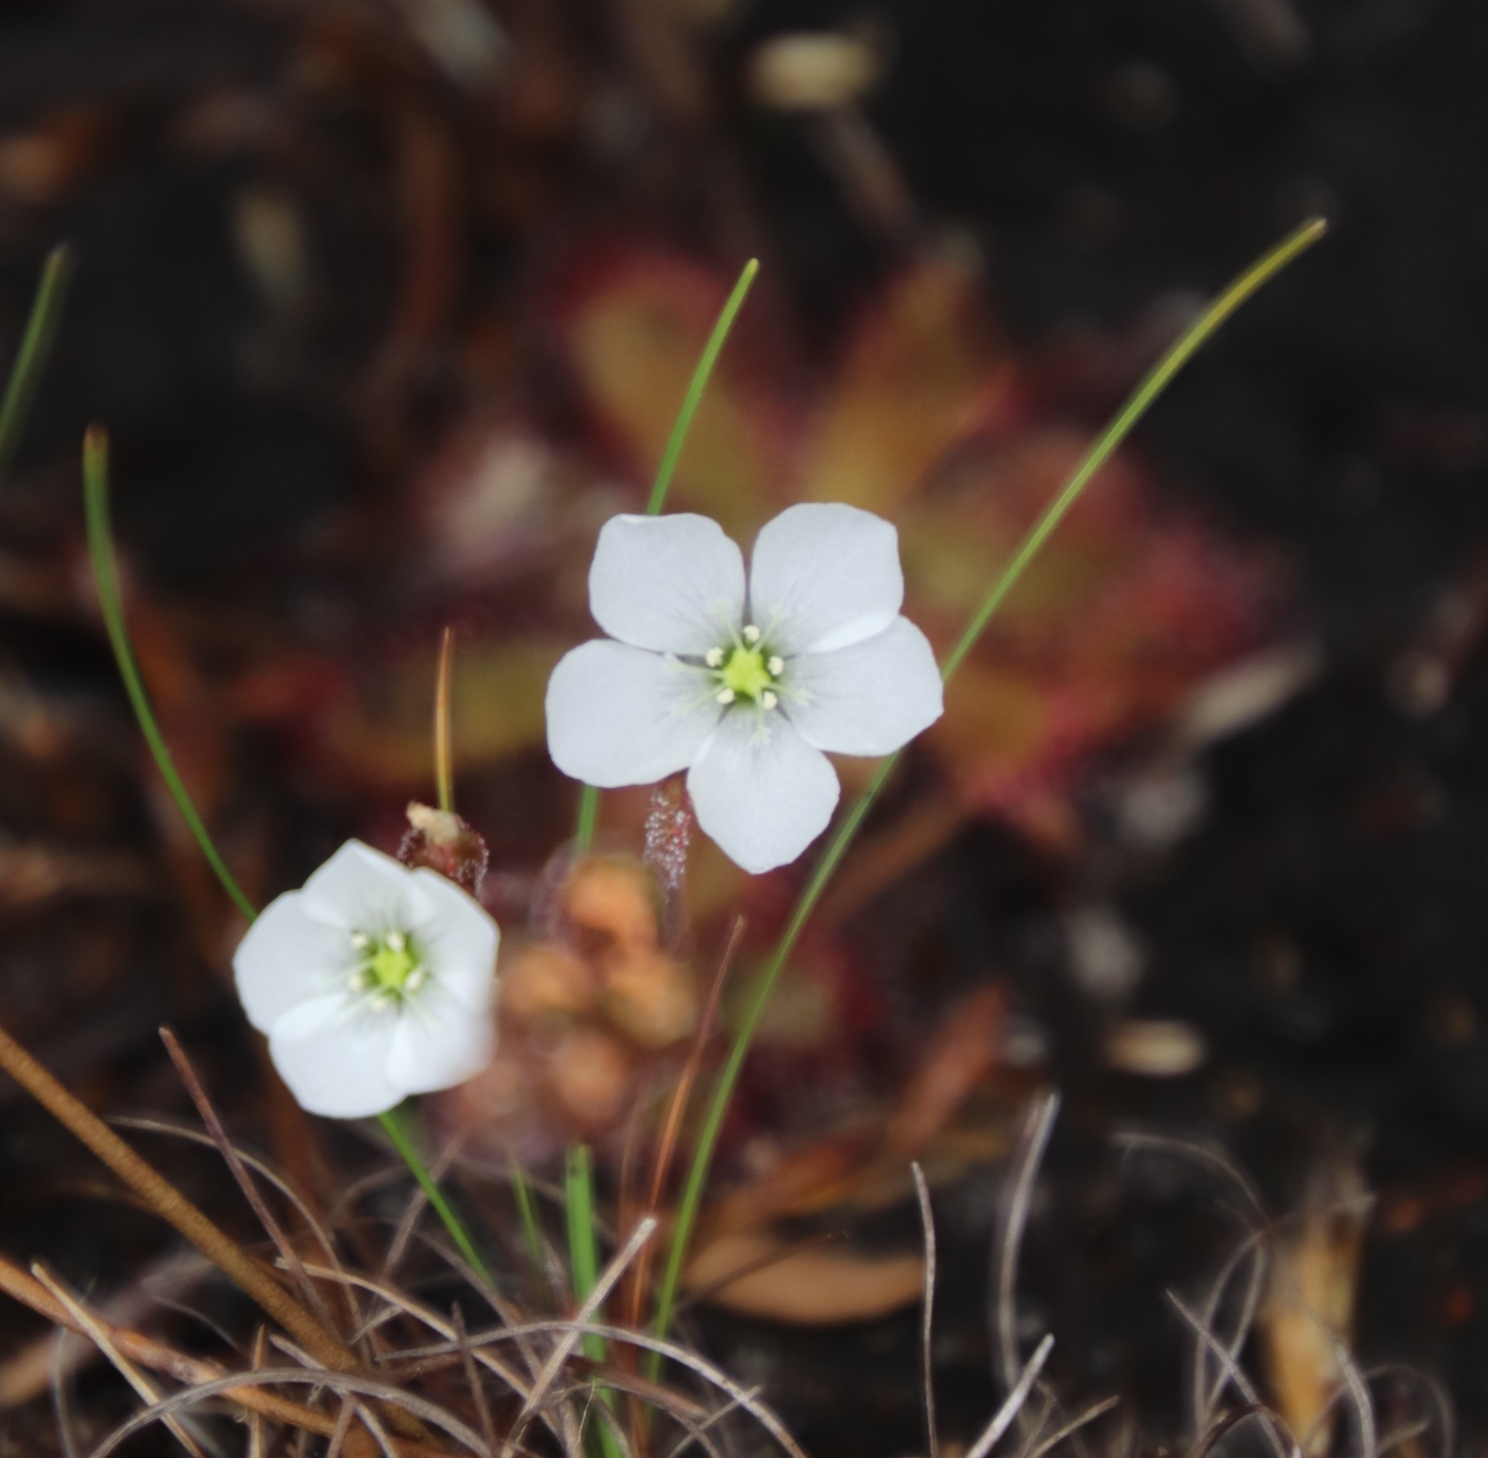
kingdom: Plantae
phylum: Tracheophyta
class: Magnoliopsida
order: Caryophyllales
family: Droseraceae
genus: Drosera
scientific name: Drosera trinervia
